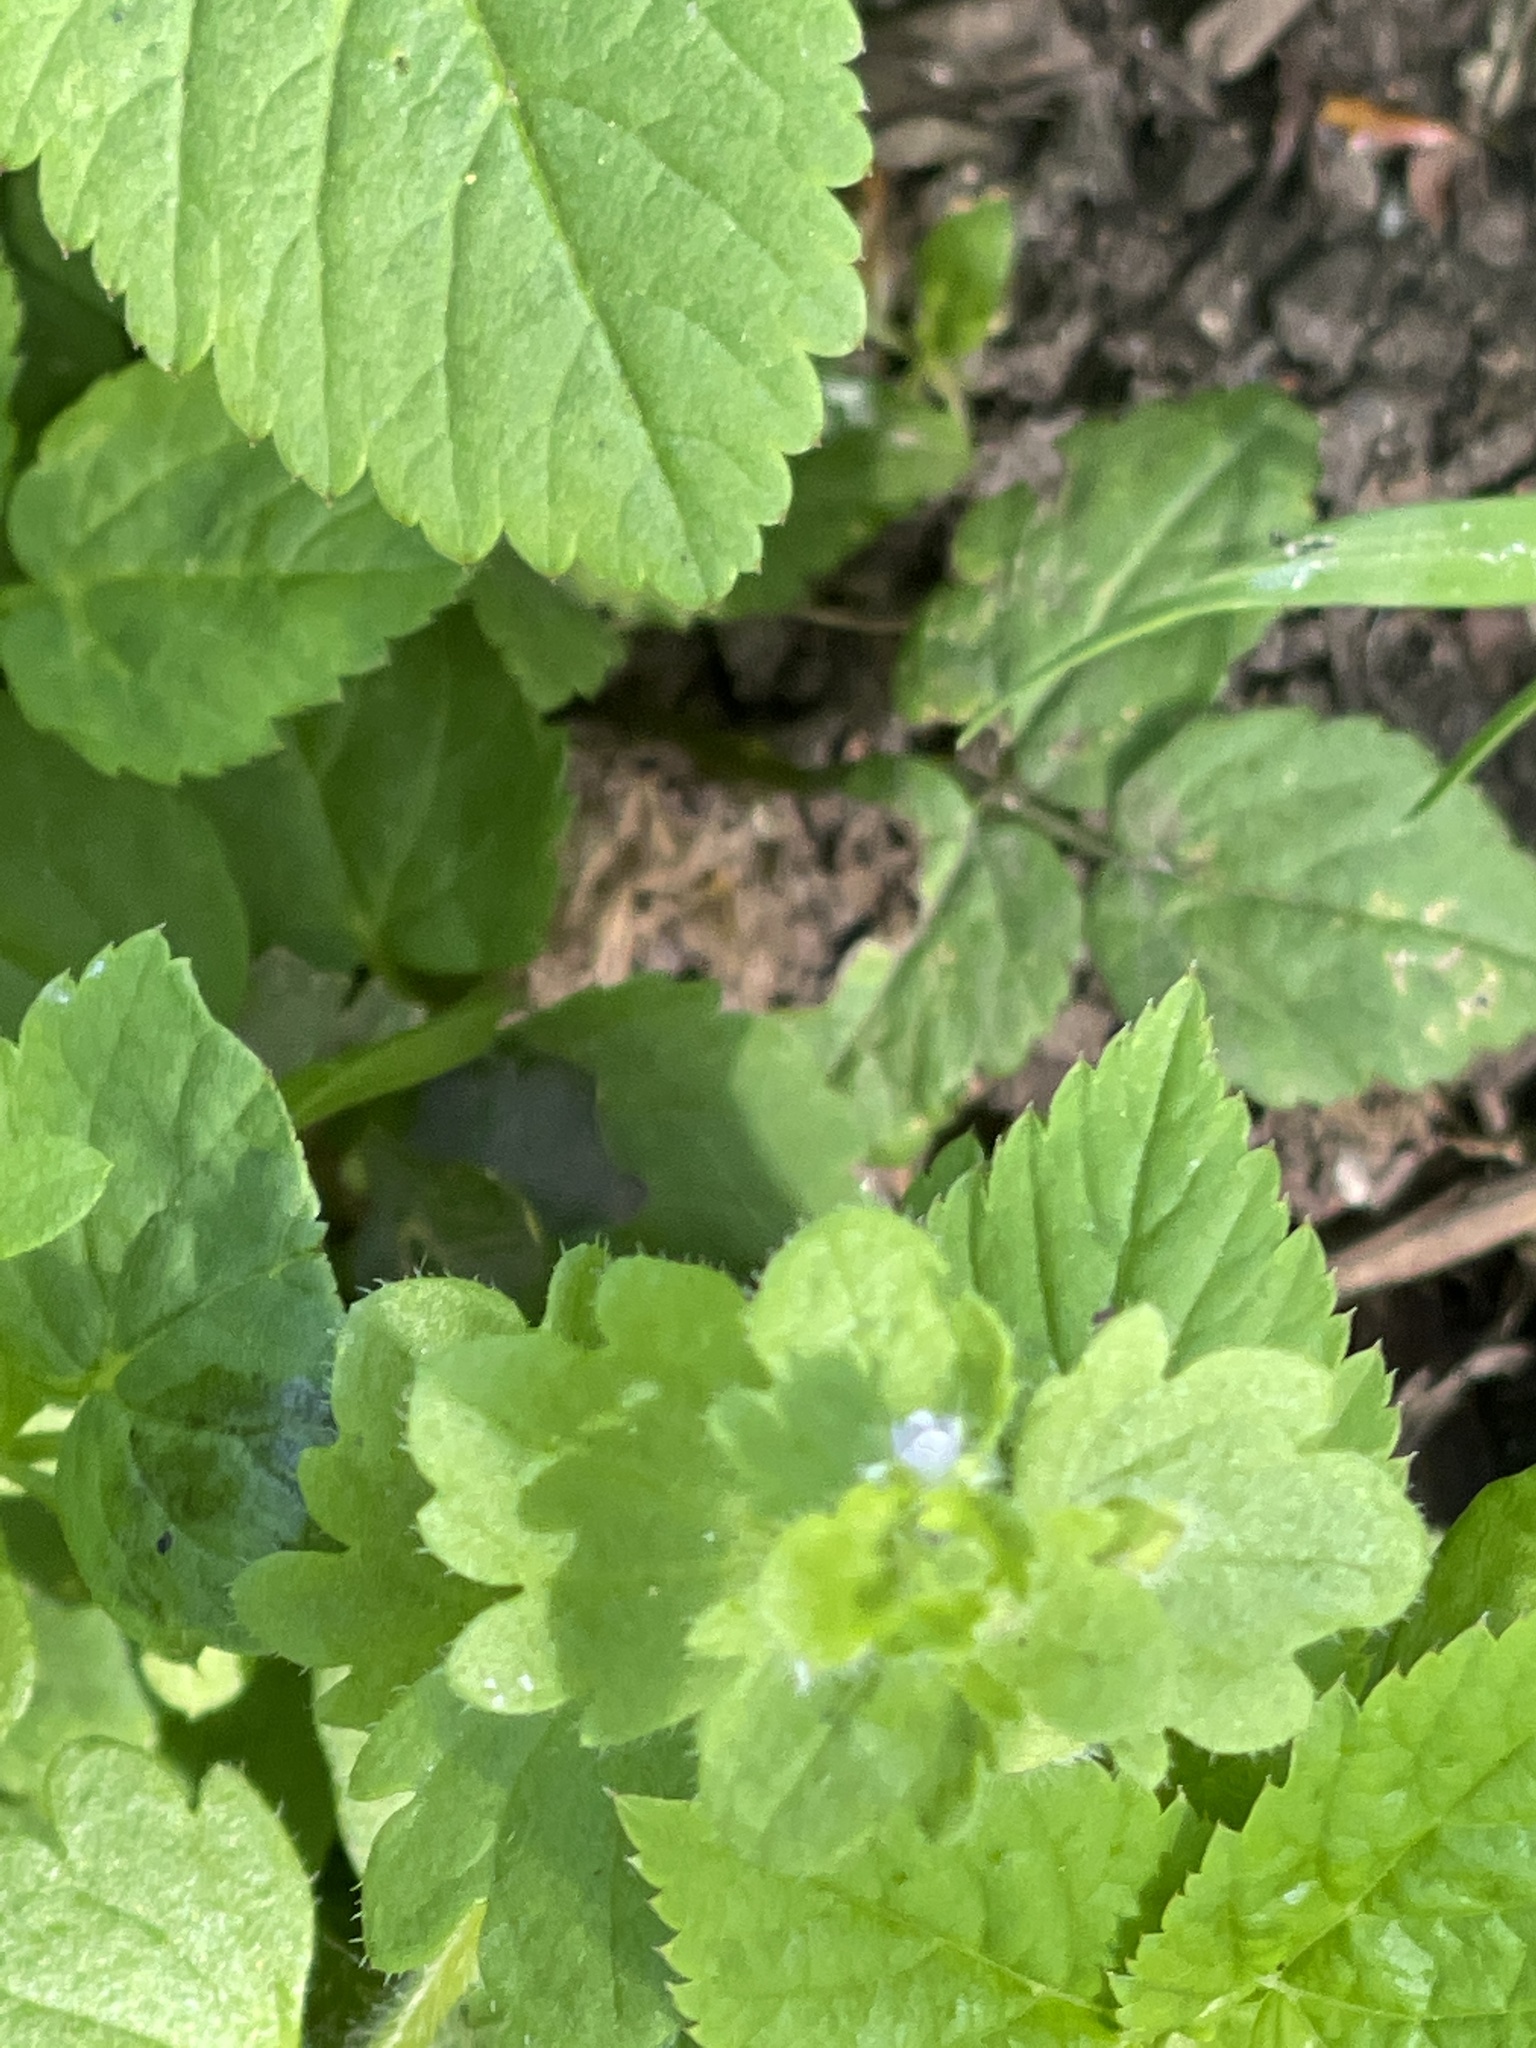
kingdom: Plantae
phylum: Tracheophyta
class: Magnoliopsida
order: Lamiales
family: Plantaginaceae
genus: Veronica
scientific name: Veronica sublobata
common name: False ivy-leaved speedwell
